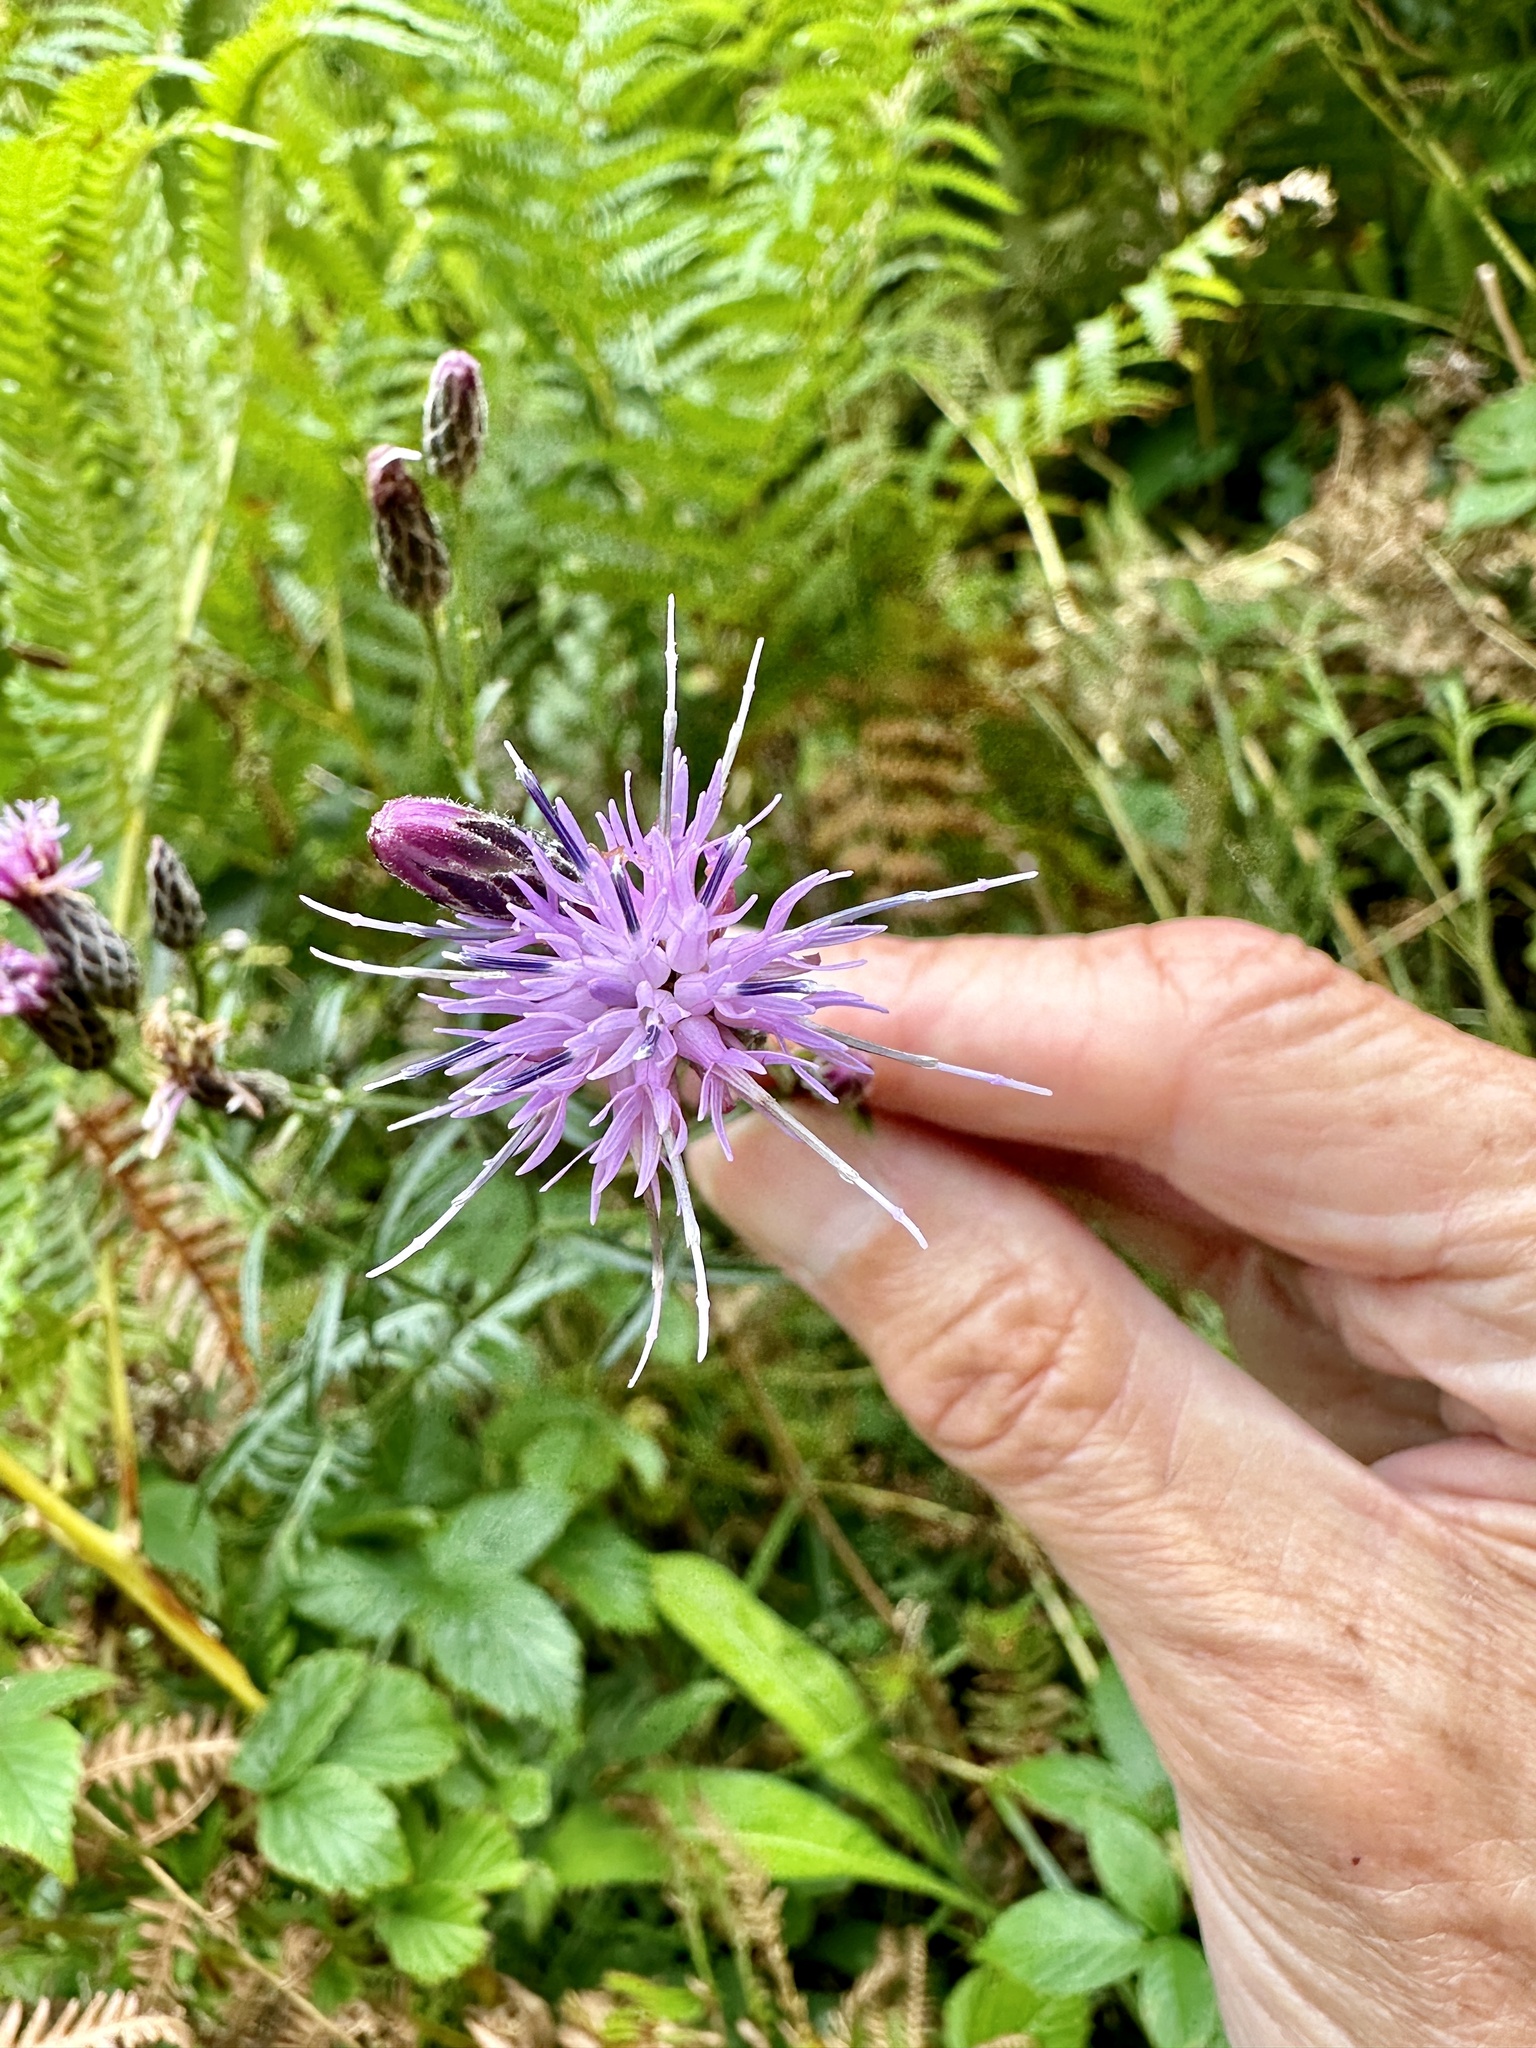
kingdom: Plantae
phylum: Tracheophyta
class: Magnoliopsida
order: Asterales
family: Asteraceae
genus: Serratula
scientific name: Serratula tinctoria
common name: Saw-wort
